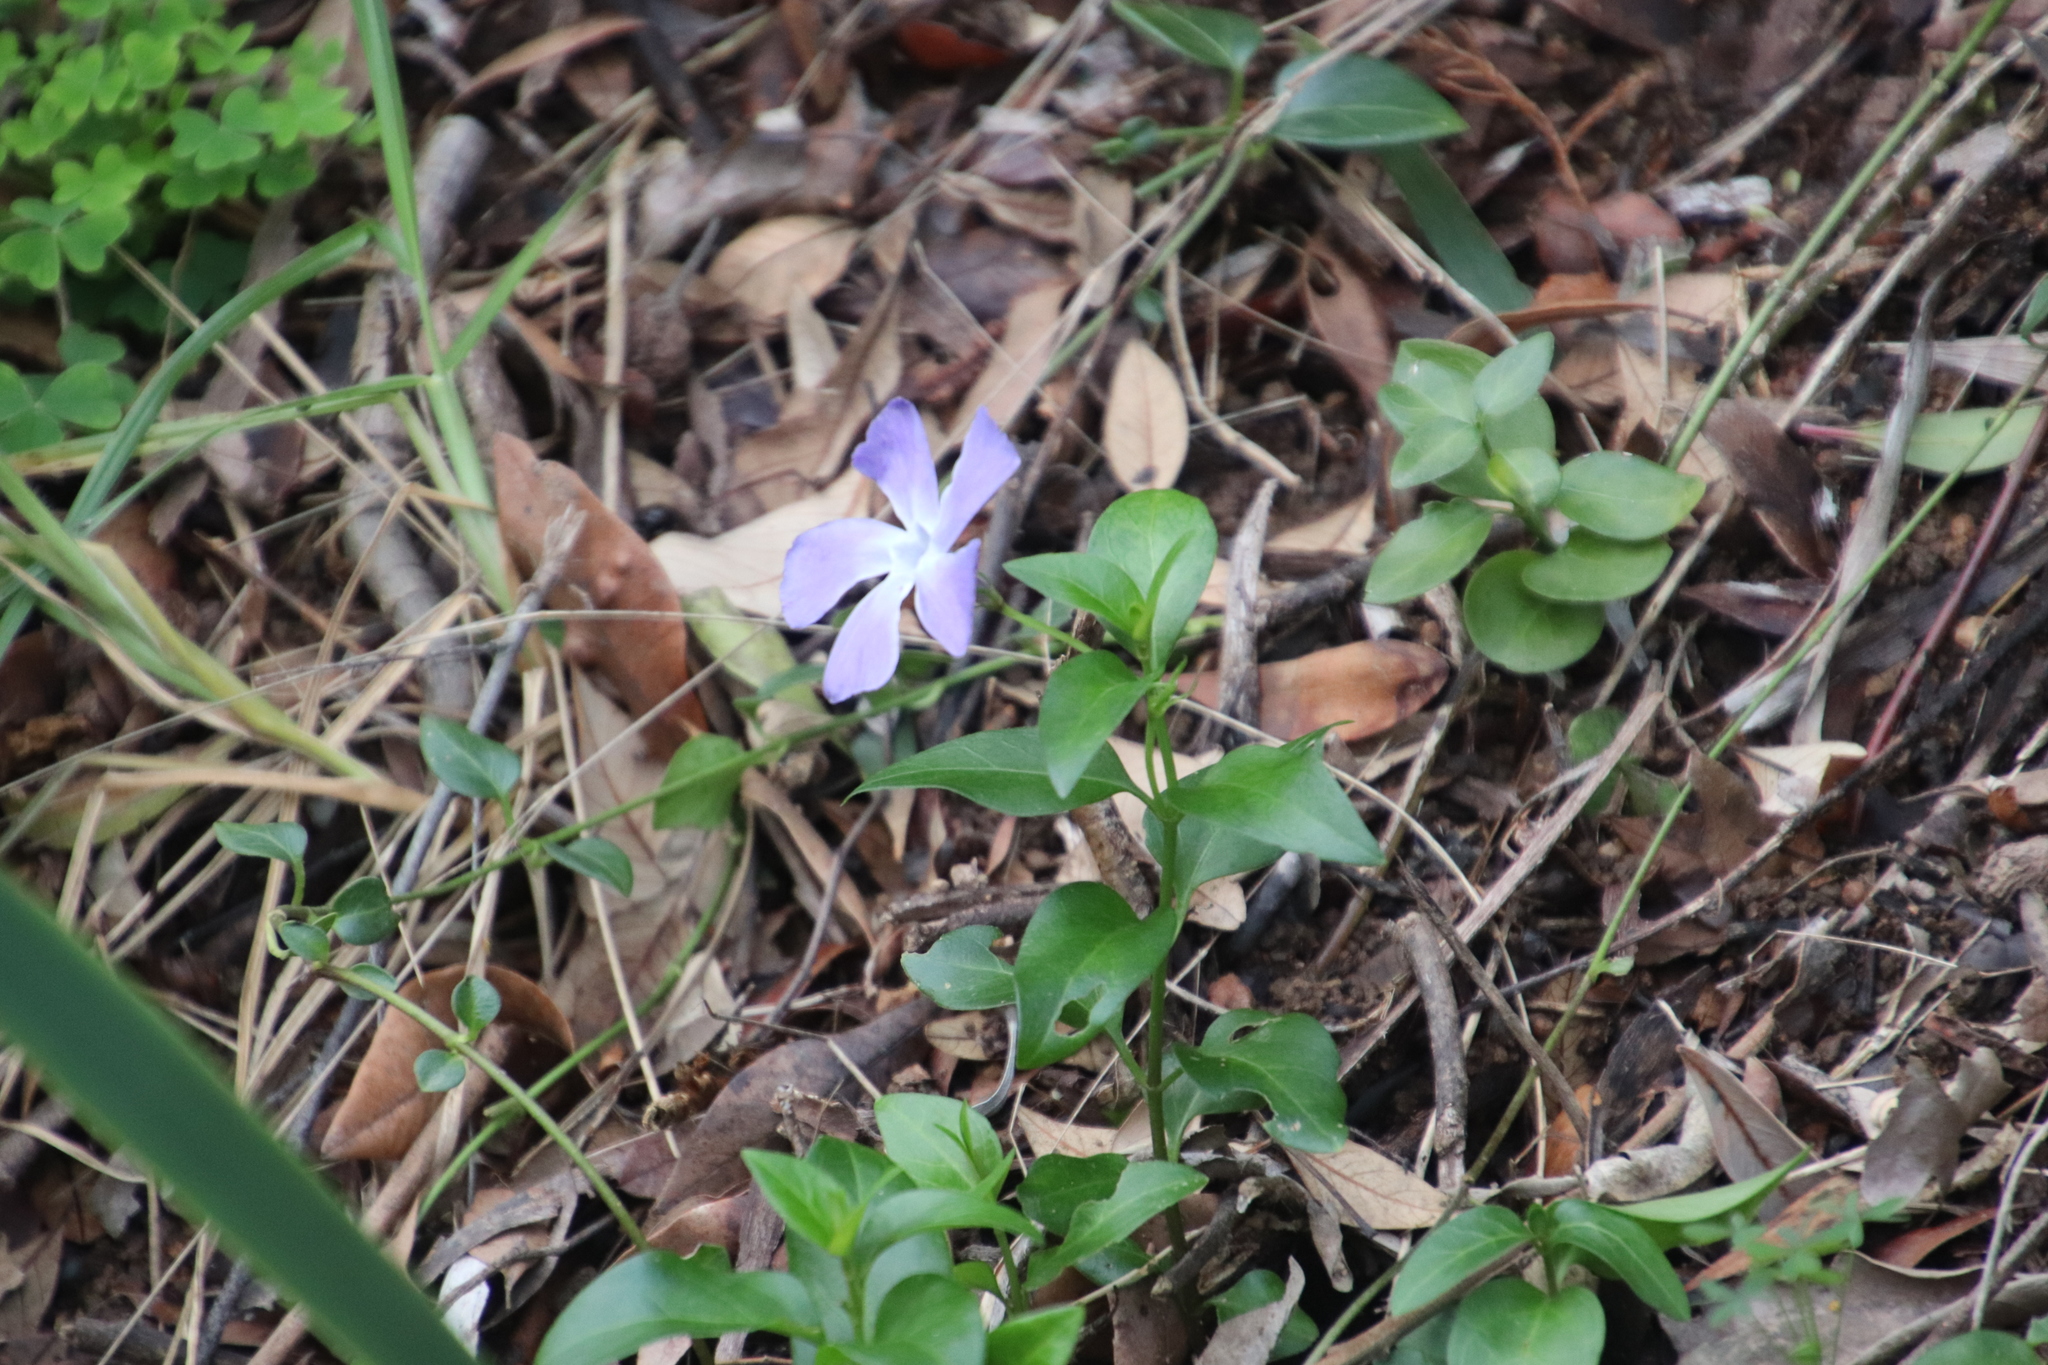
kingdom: Plantae
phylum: Tracheophyta
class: Magnoliopsida
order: Gentianales
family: Apocynaceae
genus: Vinca
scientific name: Vinca major
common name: Greater periwinkle
